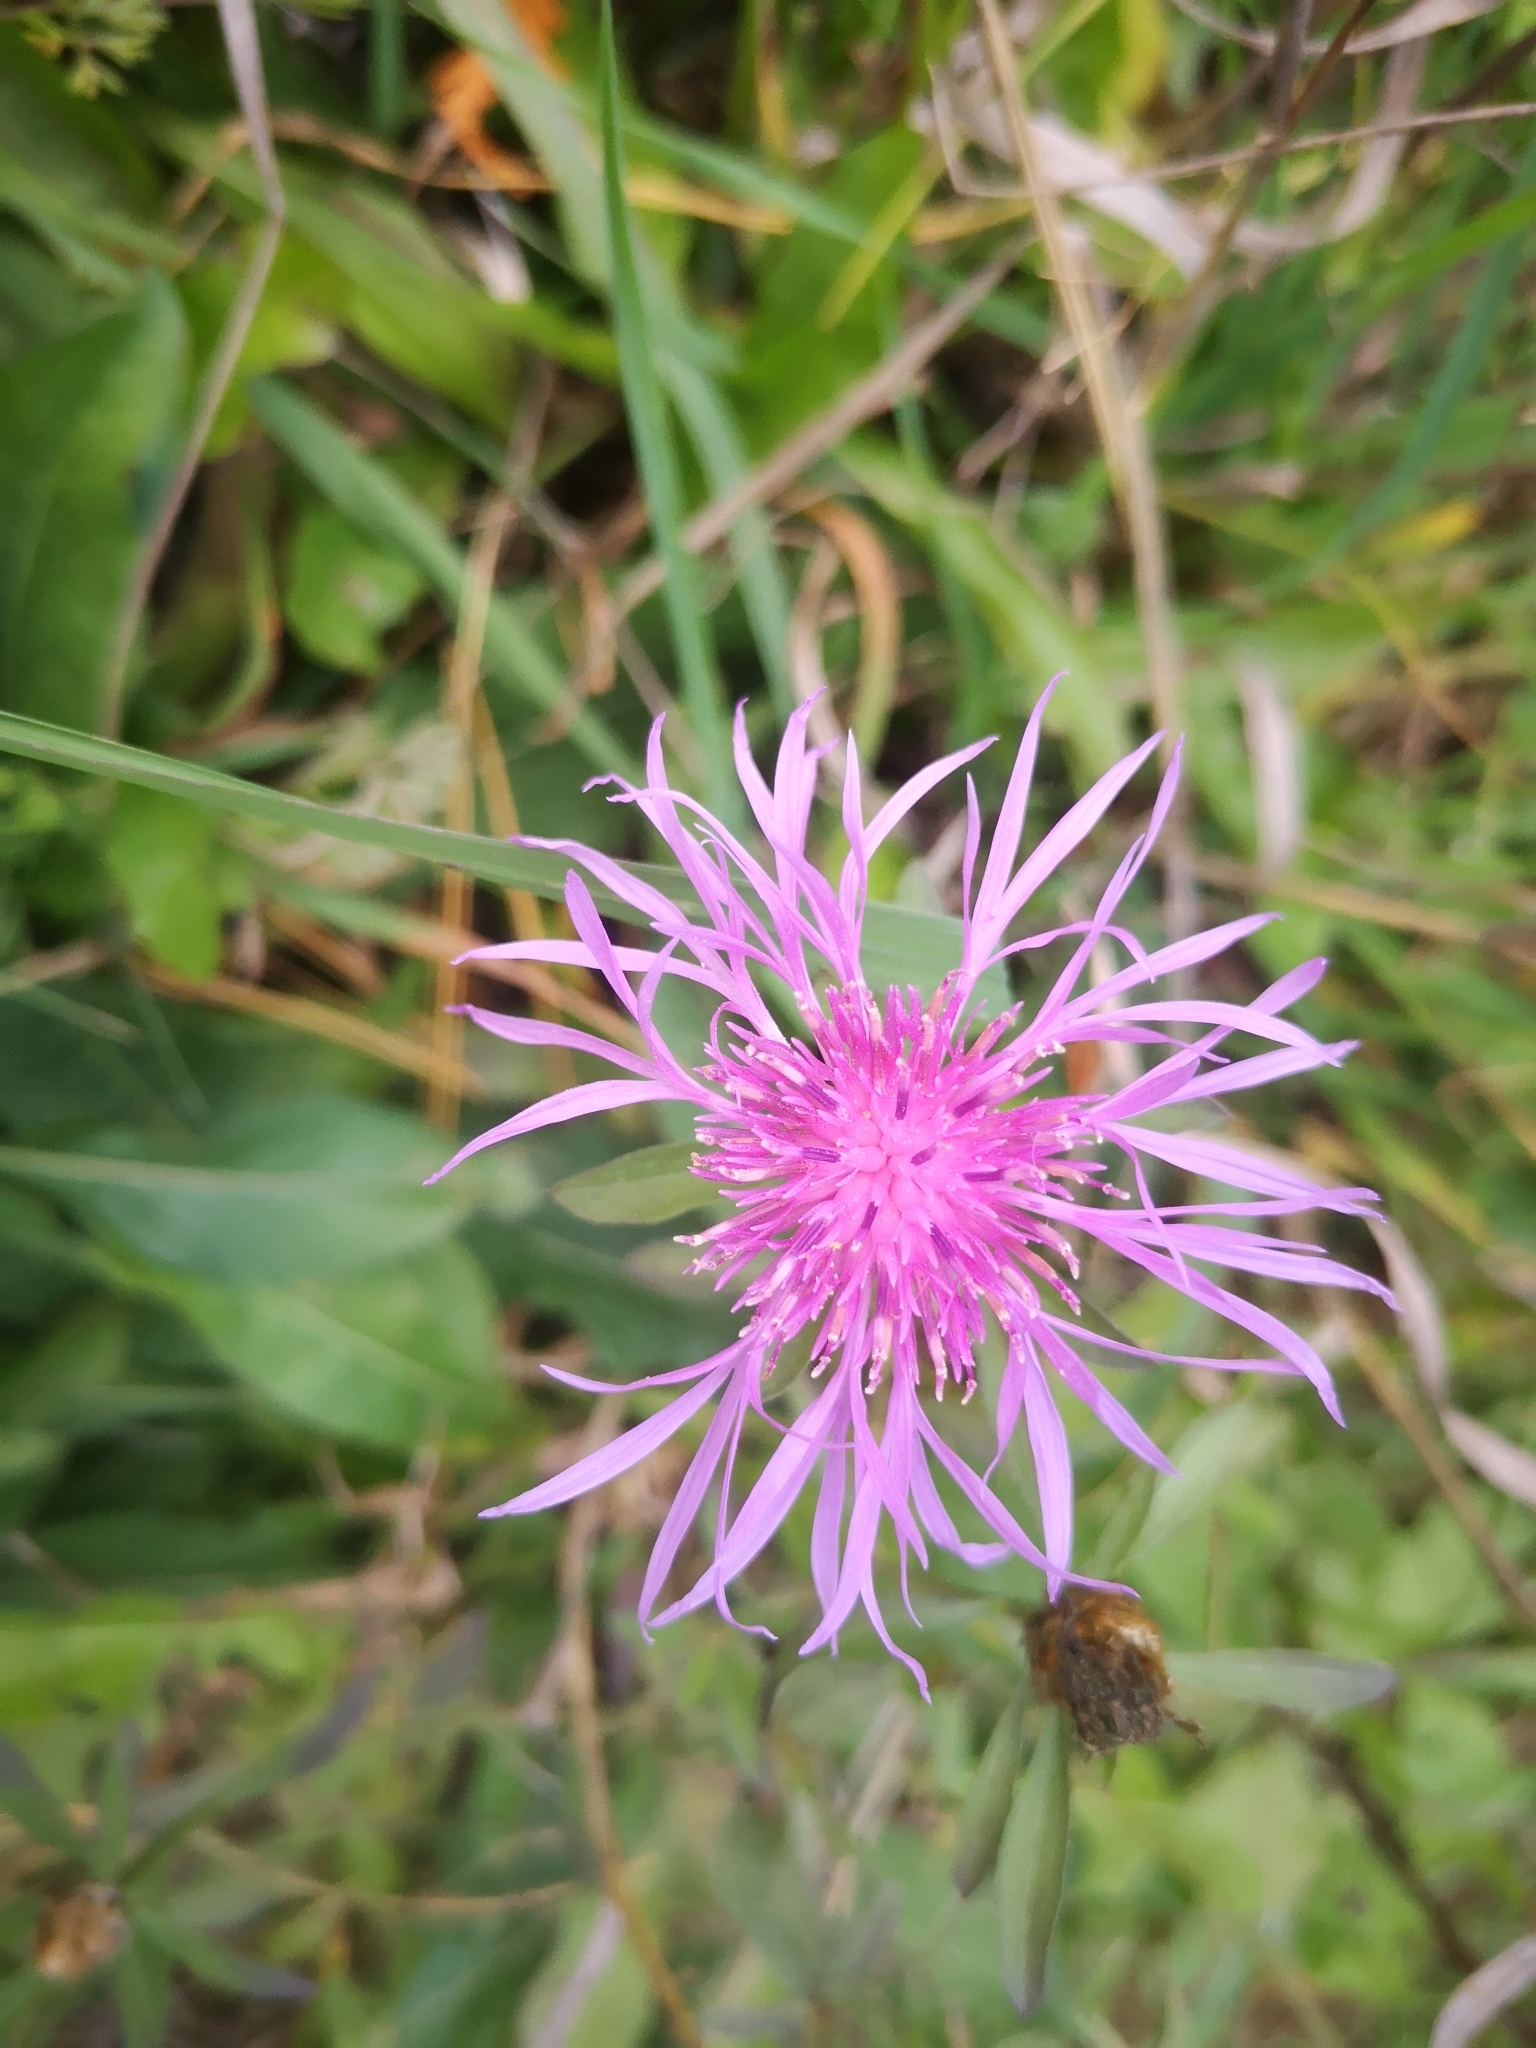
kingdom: Plantae
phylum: Tracheophyta
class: Magnoliopsida
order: Asterales
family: Asteraceae
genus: Centaurea
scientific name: Centaurea stoebe
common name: Spotted knapweed
